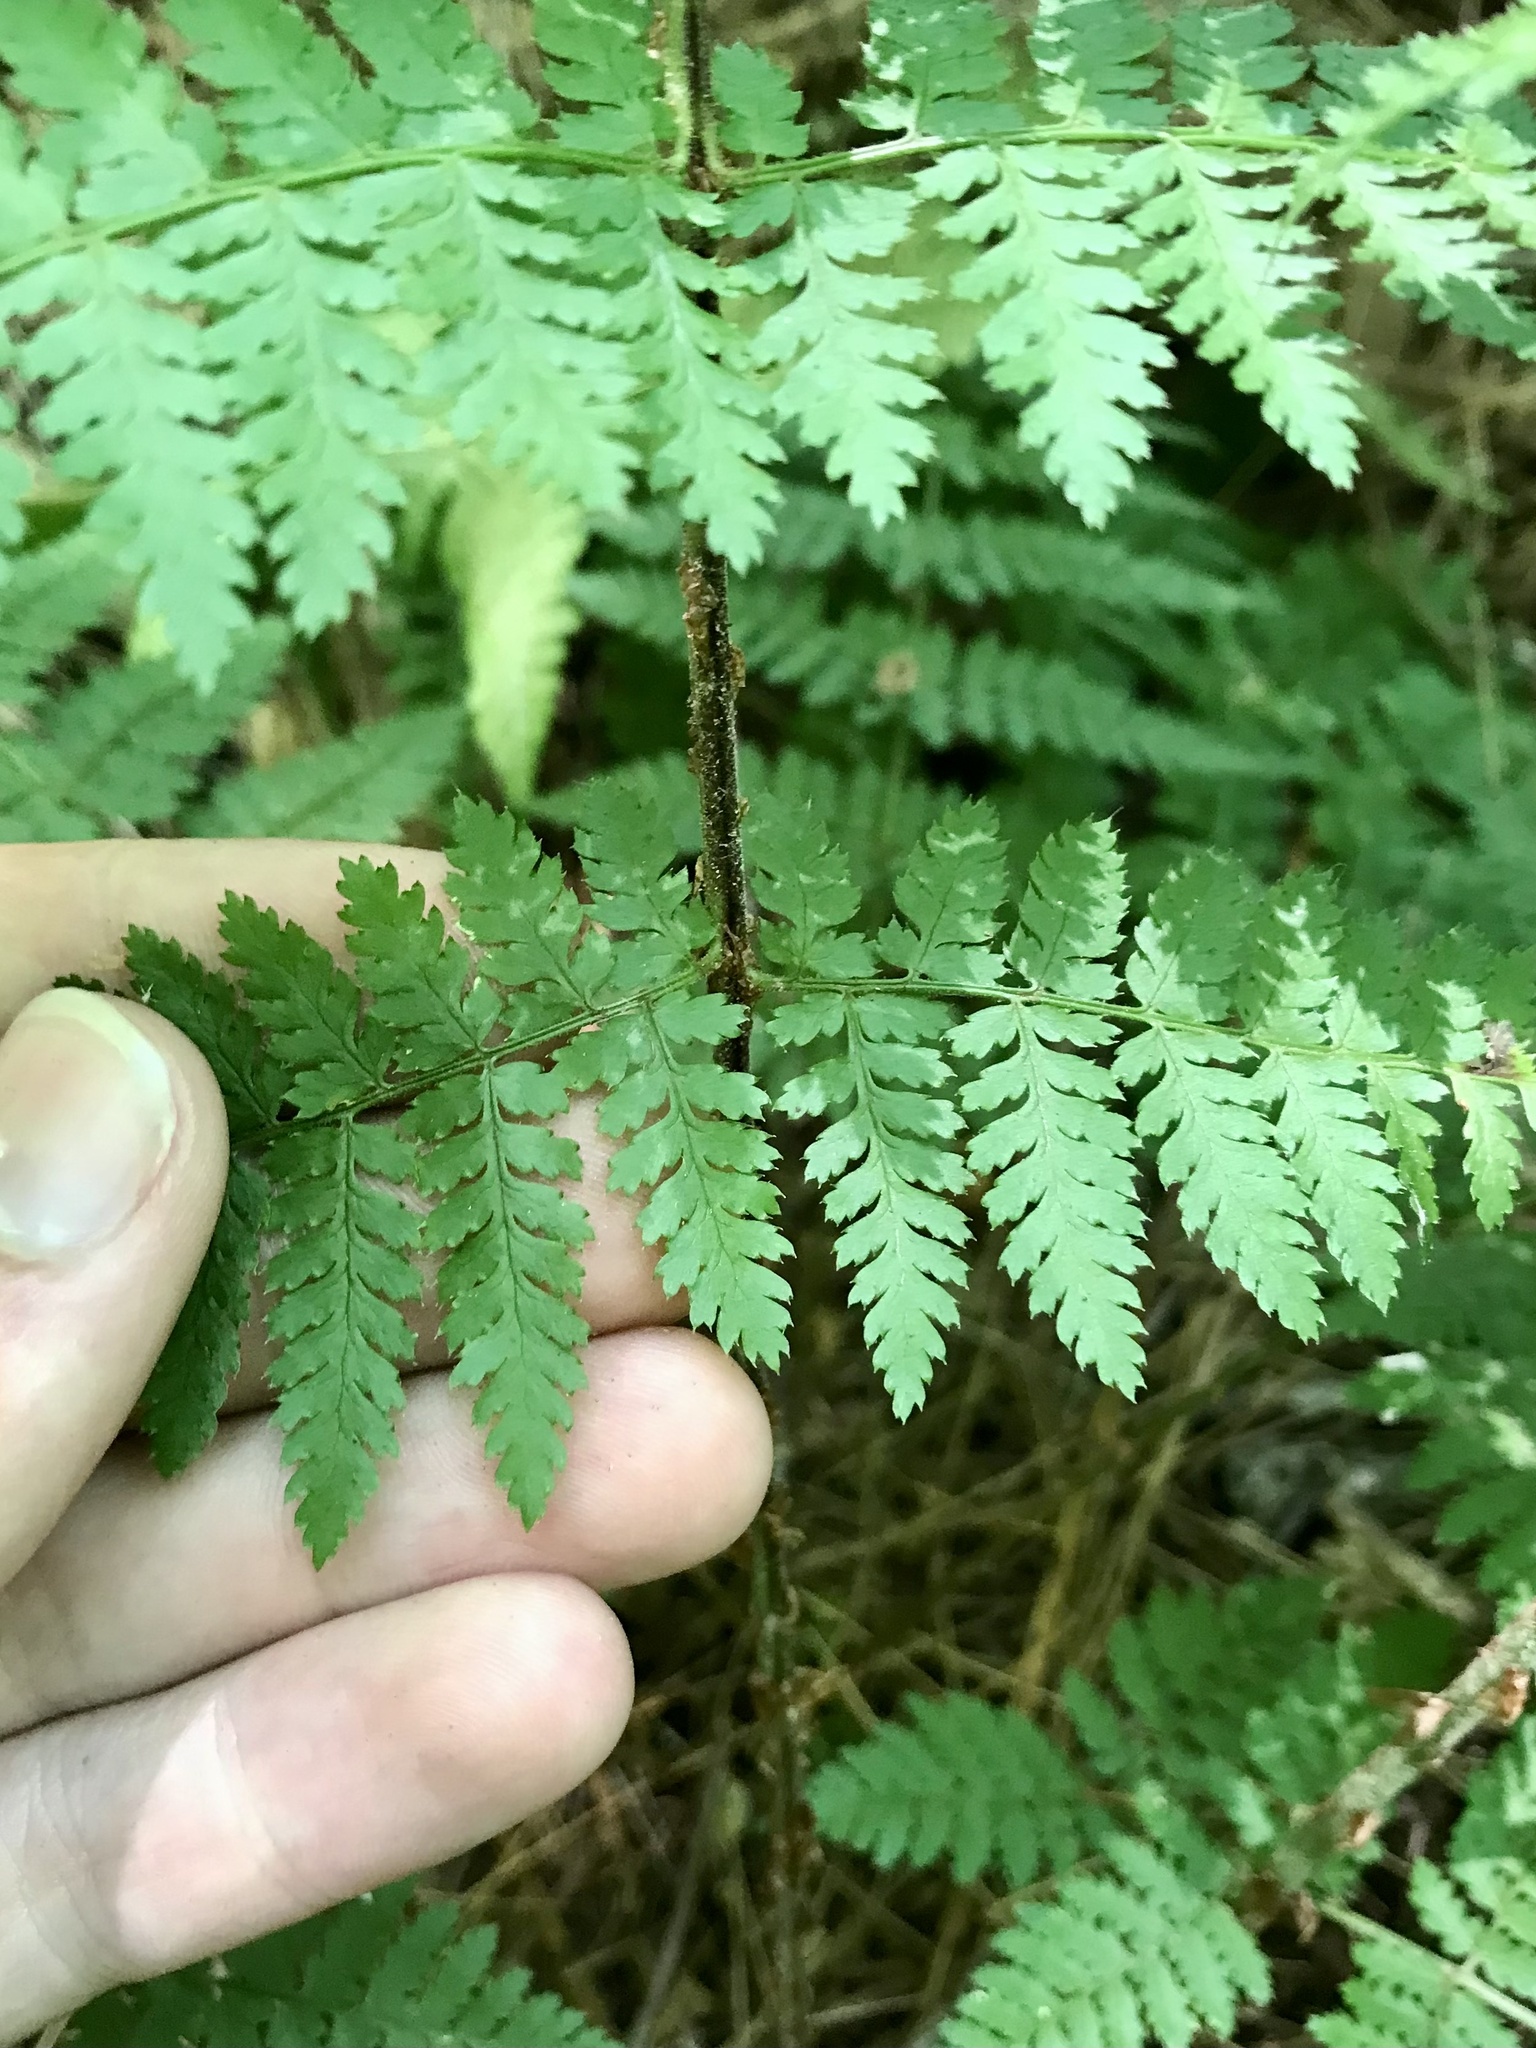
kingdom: Plantae
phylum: Tracheophyta
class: Polypodiopsida
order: Polypodiales
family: Dryopteridaceae
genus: Dryopteris
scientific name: Dryopteris intermedia
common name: Evergreen wood fern
